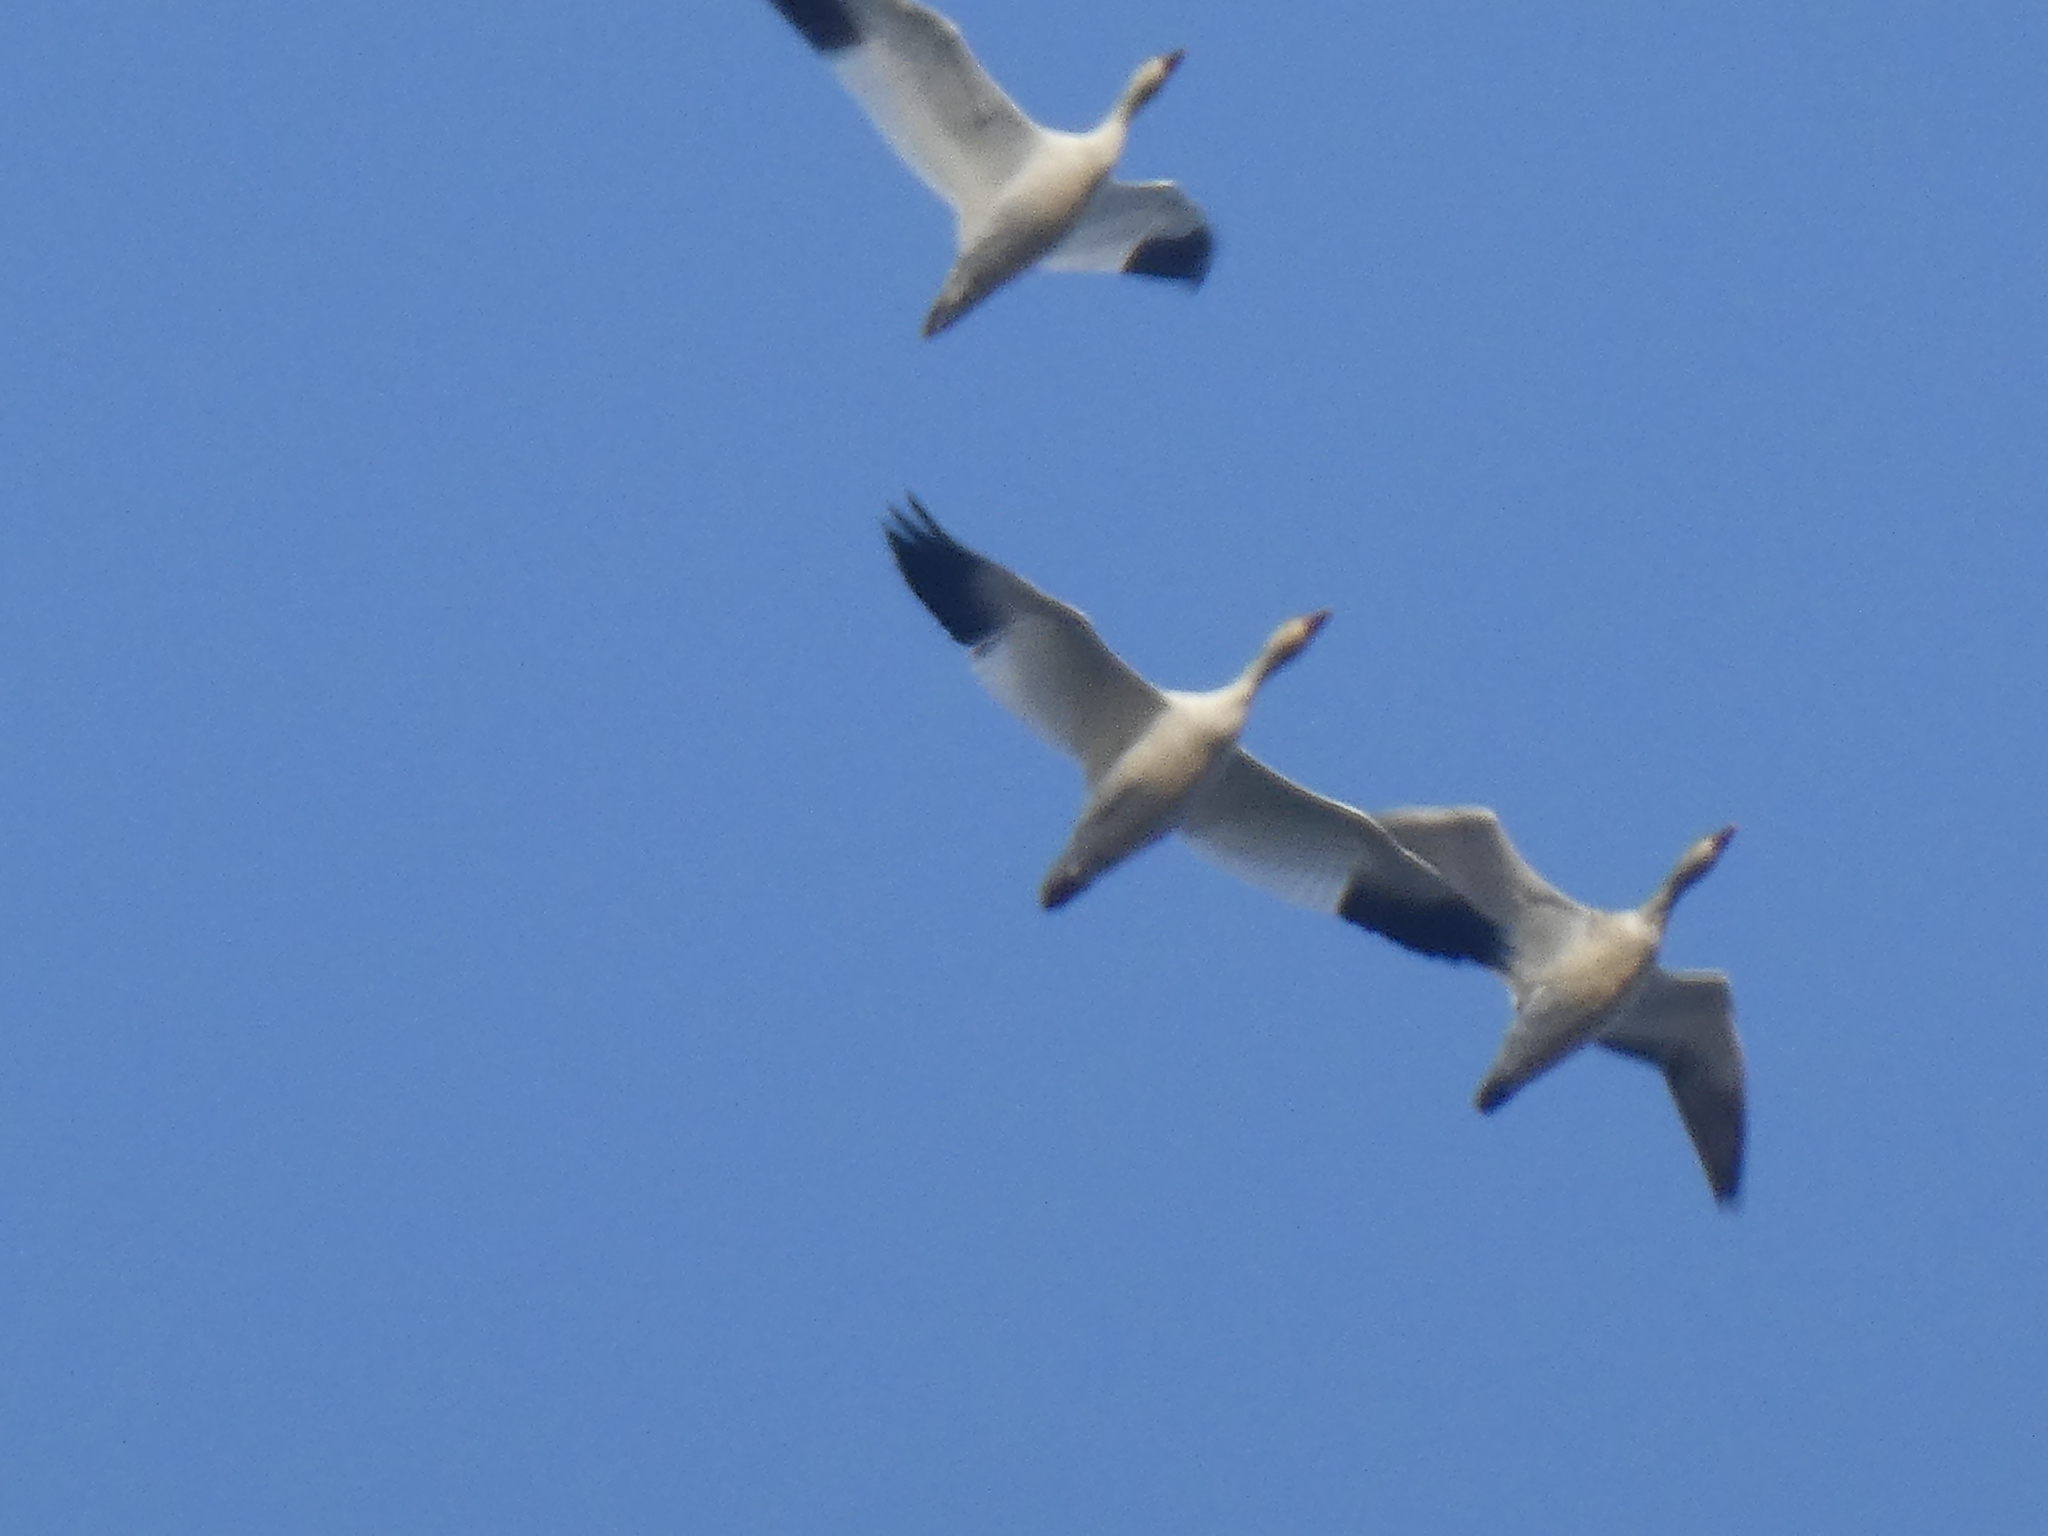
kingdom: Animalia
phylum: Chordata
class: Aves
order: Anseriformes
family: Anatidae
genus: Anser
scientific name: Anser caerulescens
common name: Snow goose
